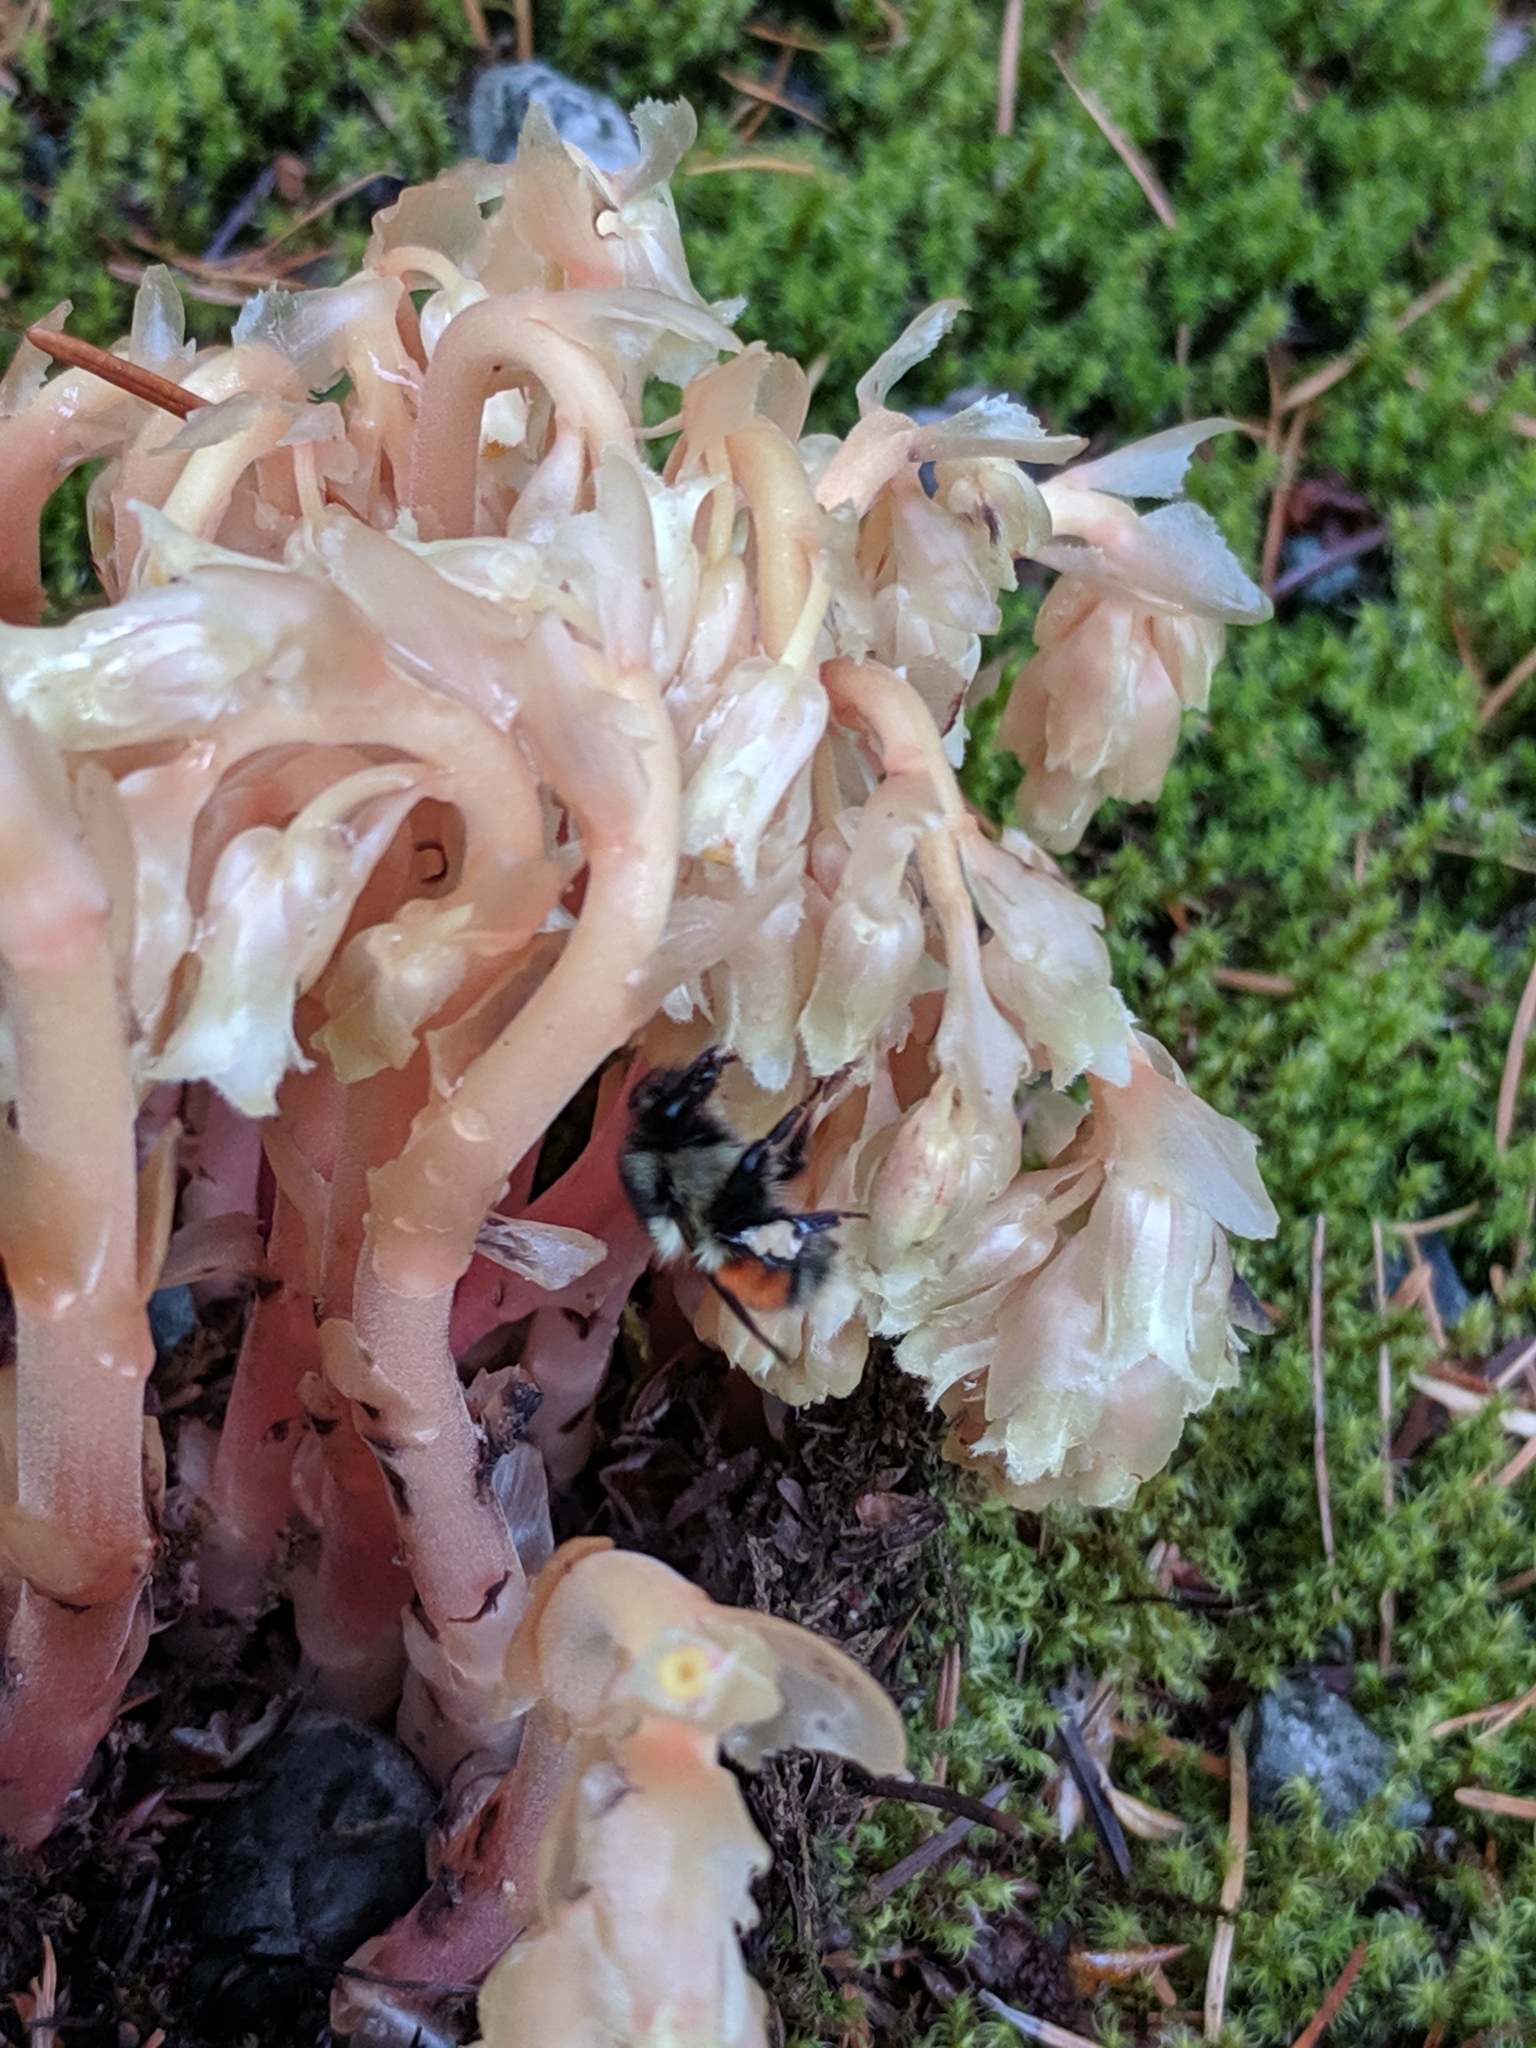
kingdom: Animalia
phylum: Arthropoda
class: Insecta
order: Hymenoptera
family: Apidae
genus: Bombus
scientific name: Bombus melanopygus
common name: Black tail bumble bee
